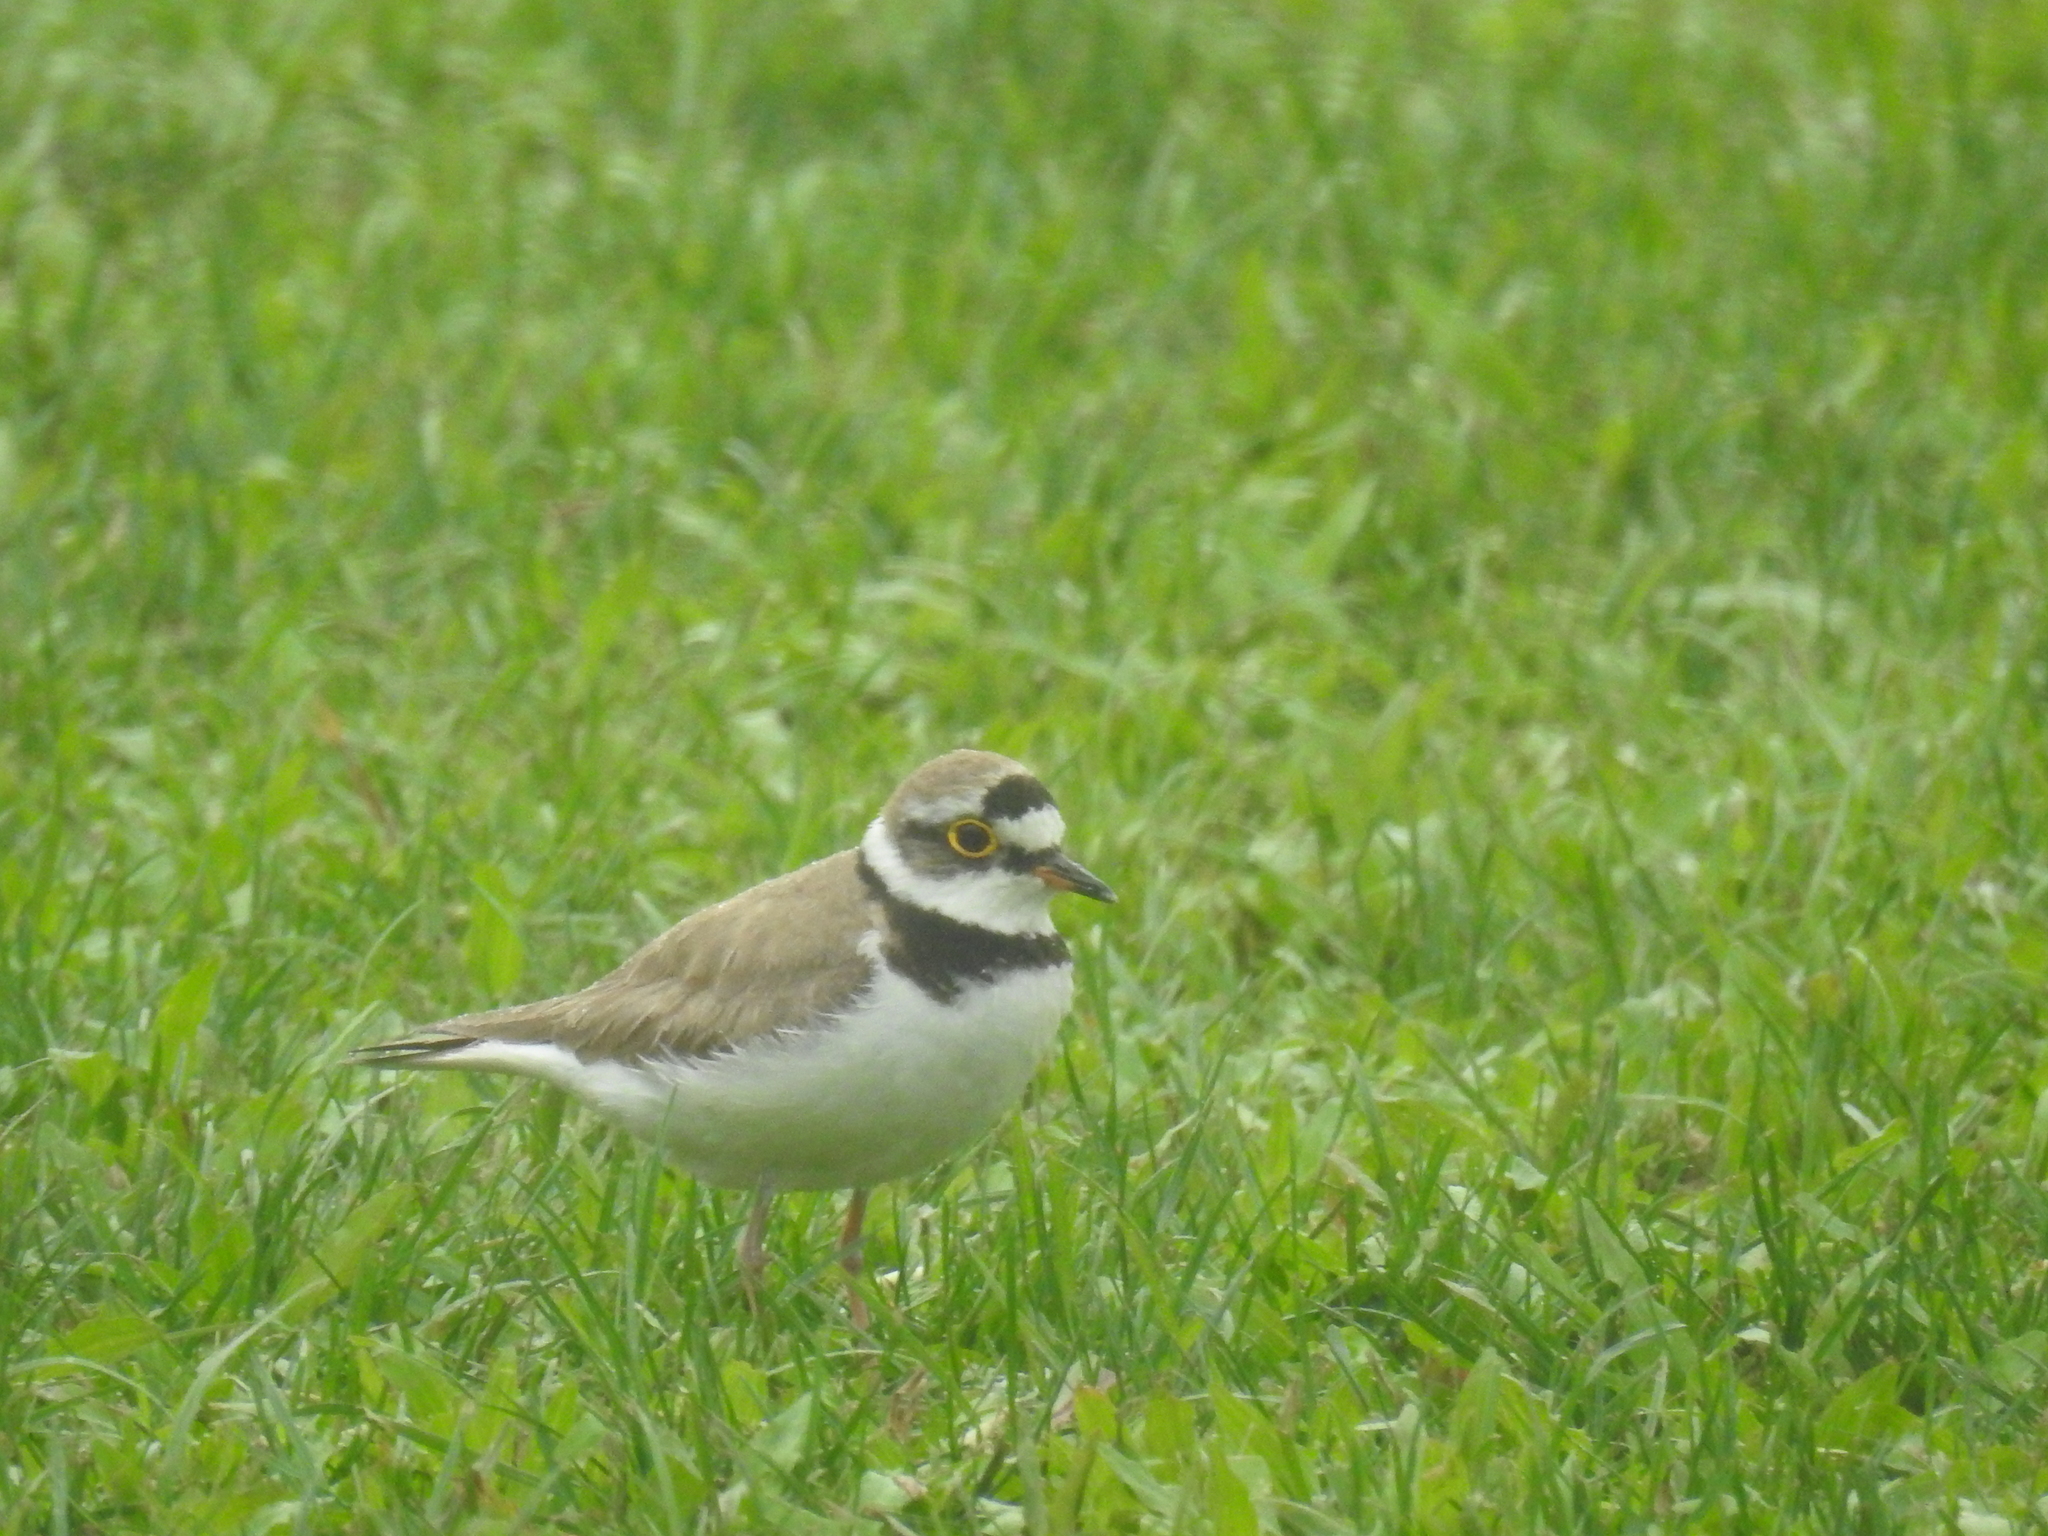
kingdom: Animalia
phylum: Chordata
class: Aves
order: Charadriiformes
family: Charadriidae
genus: Charadrius
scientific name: Charadrius dubius
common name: Little ringed plover
